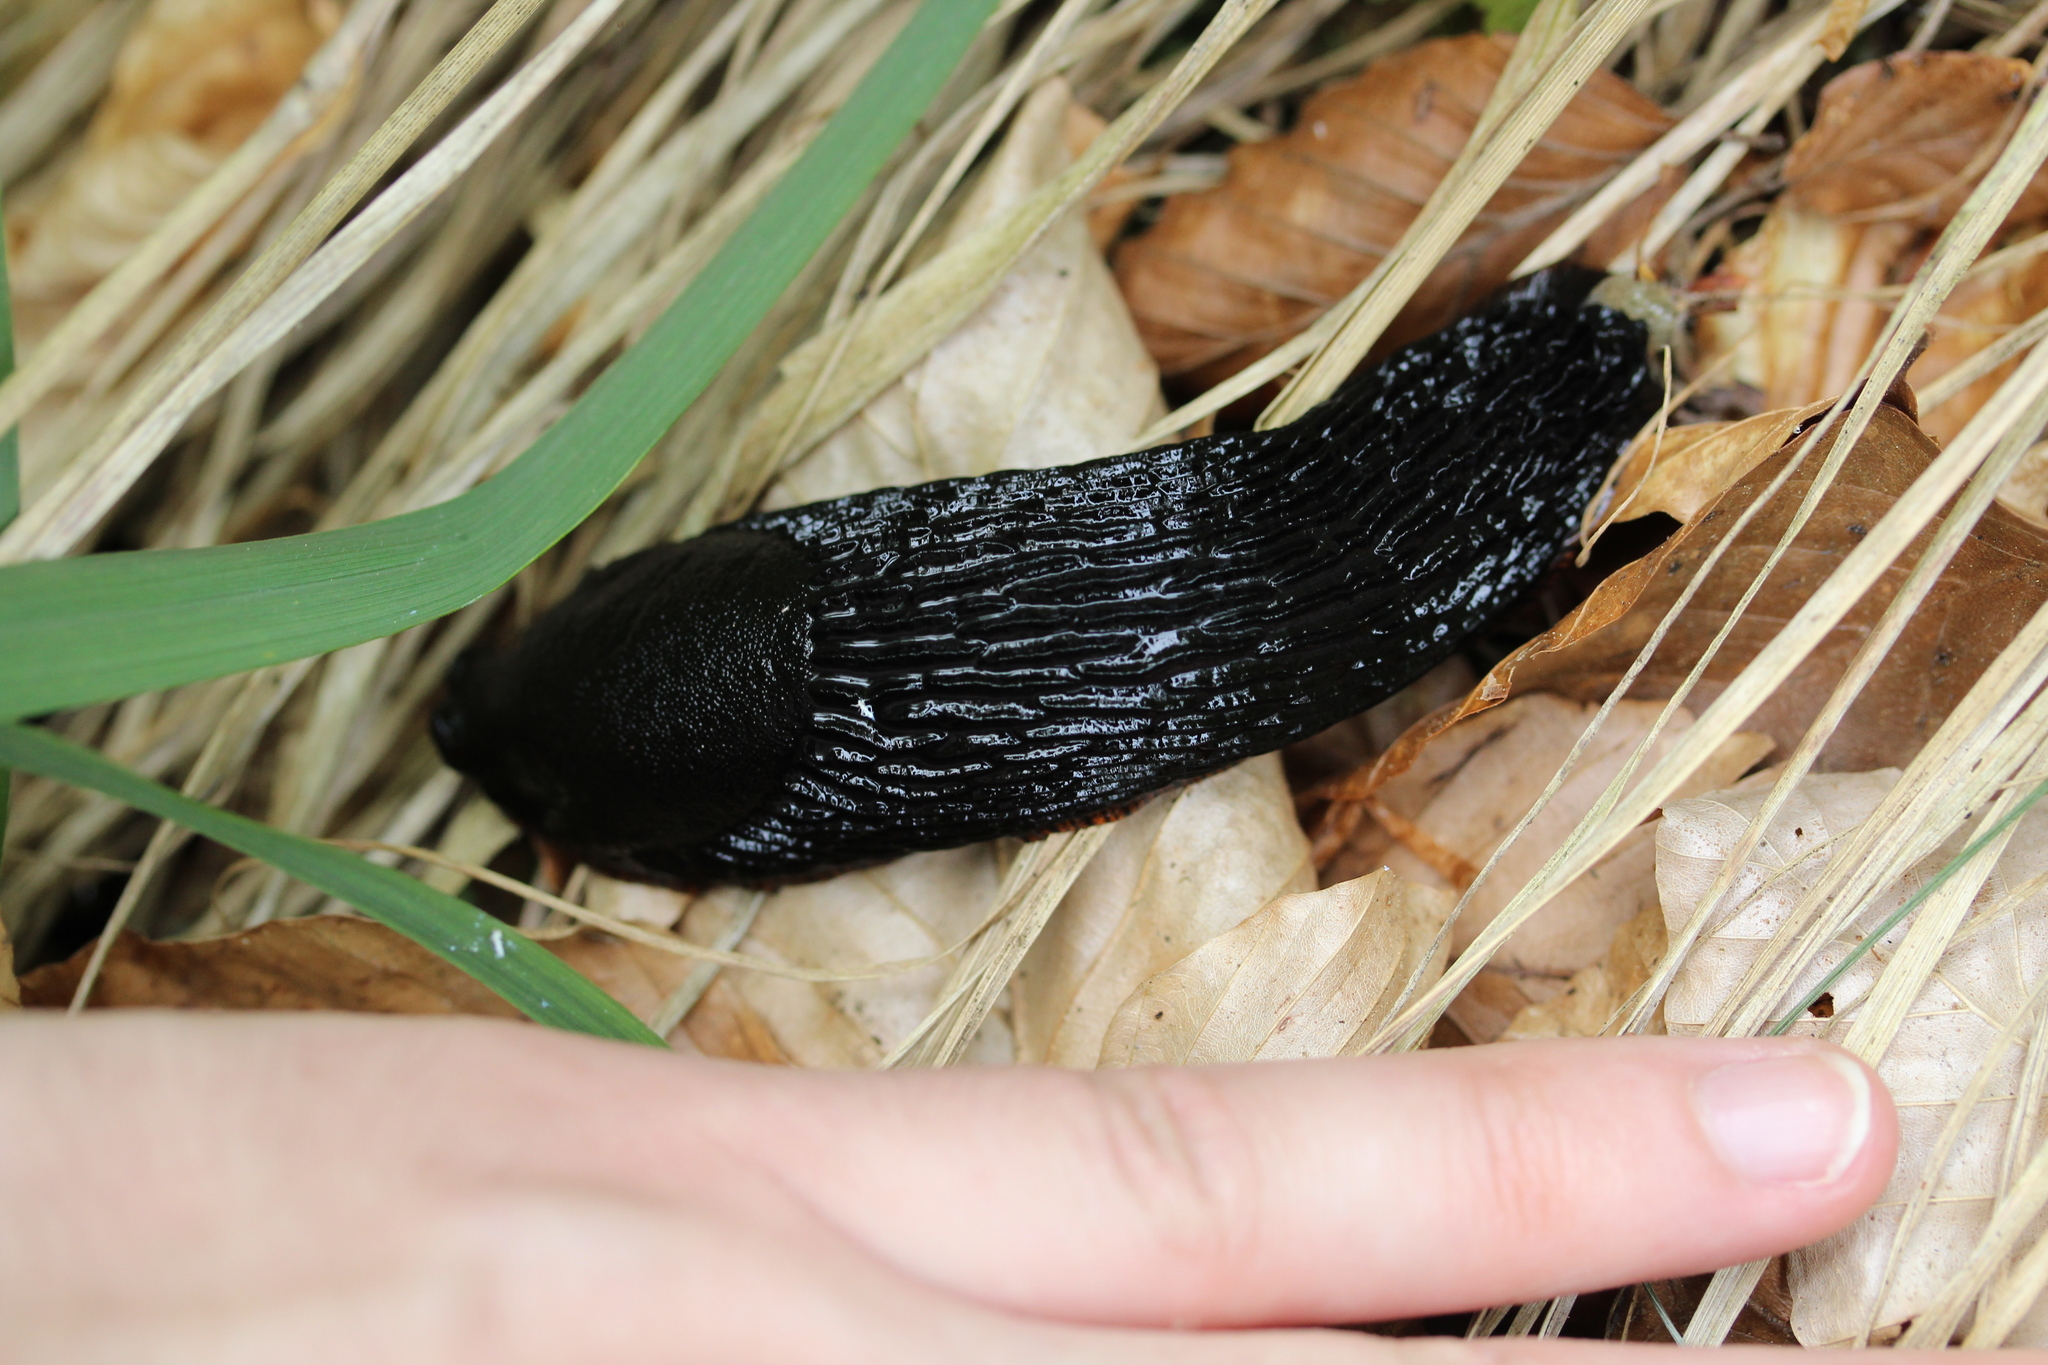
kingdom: Animalia
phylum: Mollusca
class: Gastropoda
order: Stylommatophora
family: Arionidae
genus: Arion
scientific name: Arion ater
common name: Black arion
